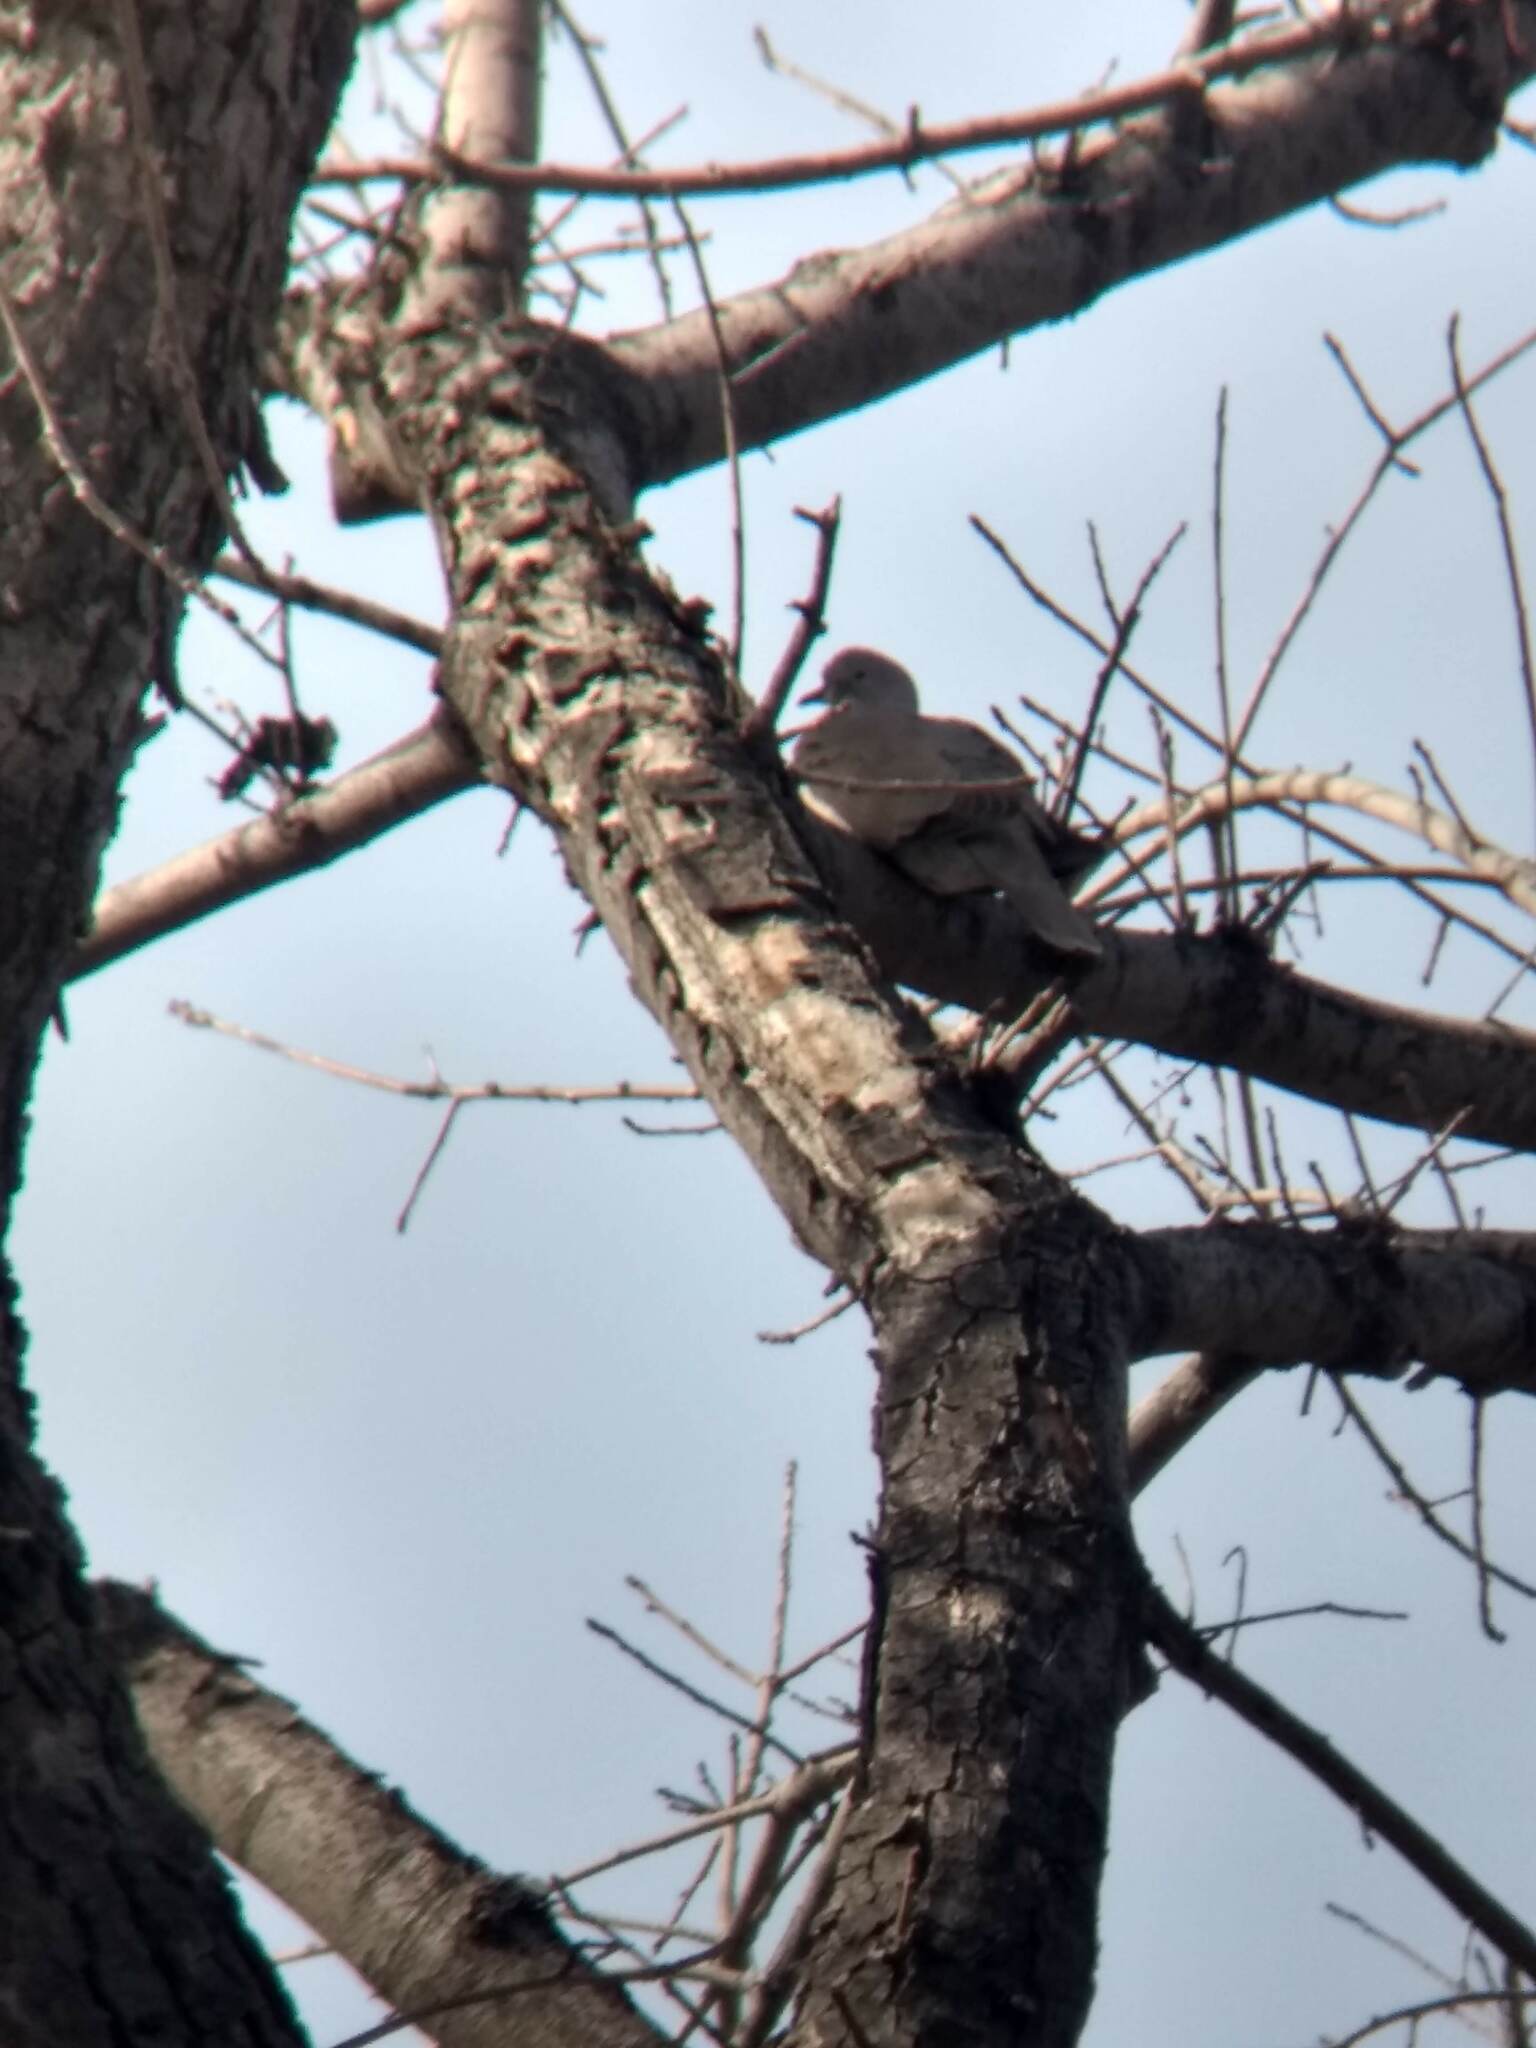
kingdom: Animalia
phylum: Chordata
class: Aves
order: Columbiformes
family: Columbidae
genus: Streptopelia
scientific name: Streptopelia decaocto
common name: Eurasian collared dove
